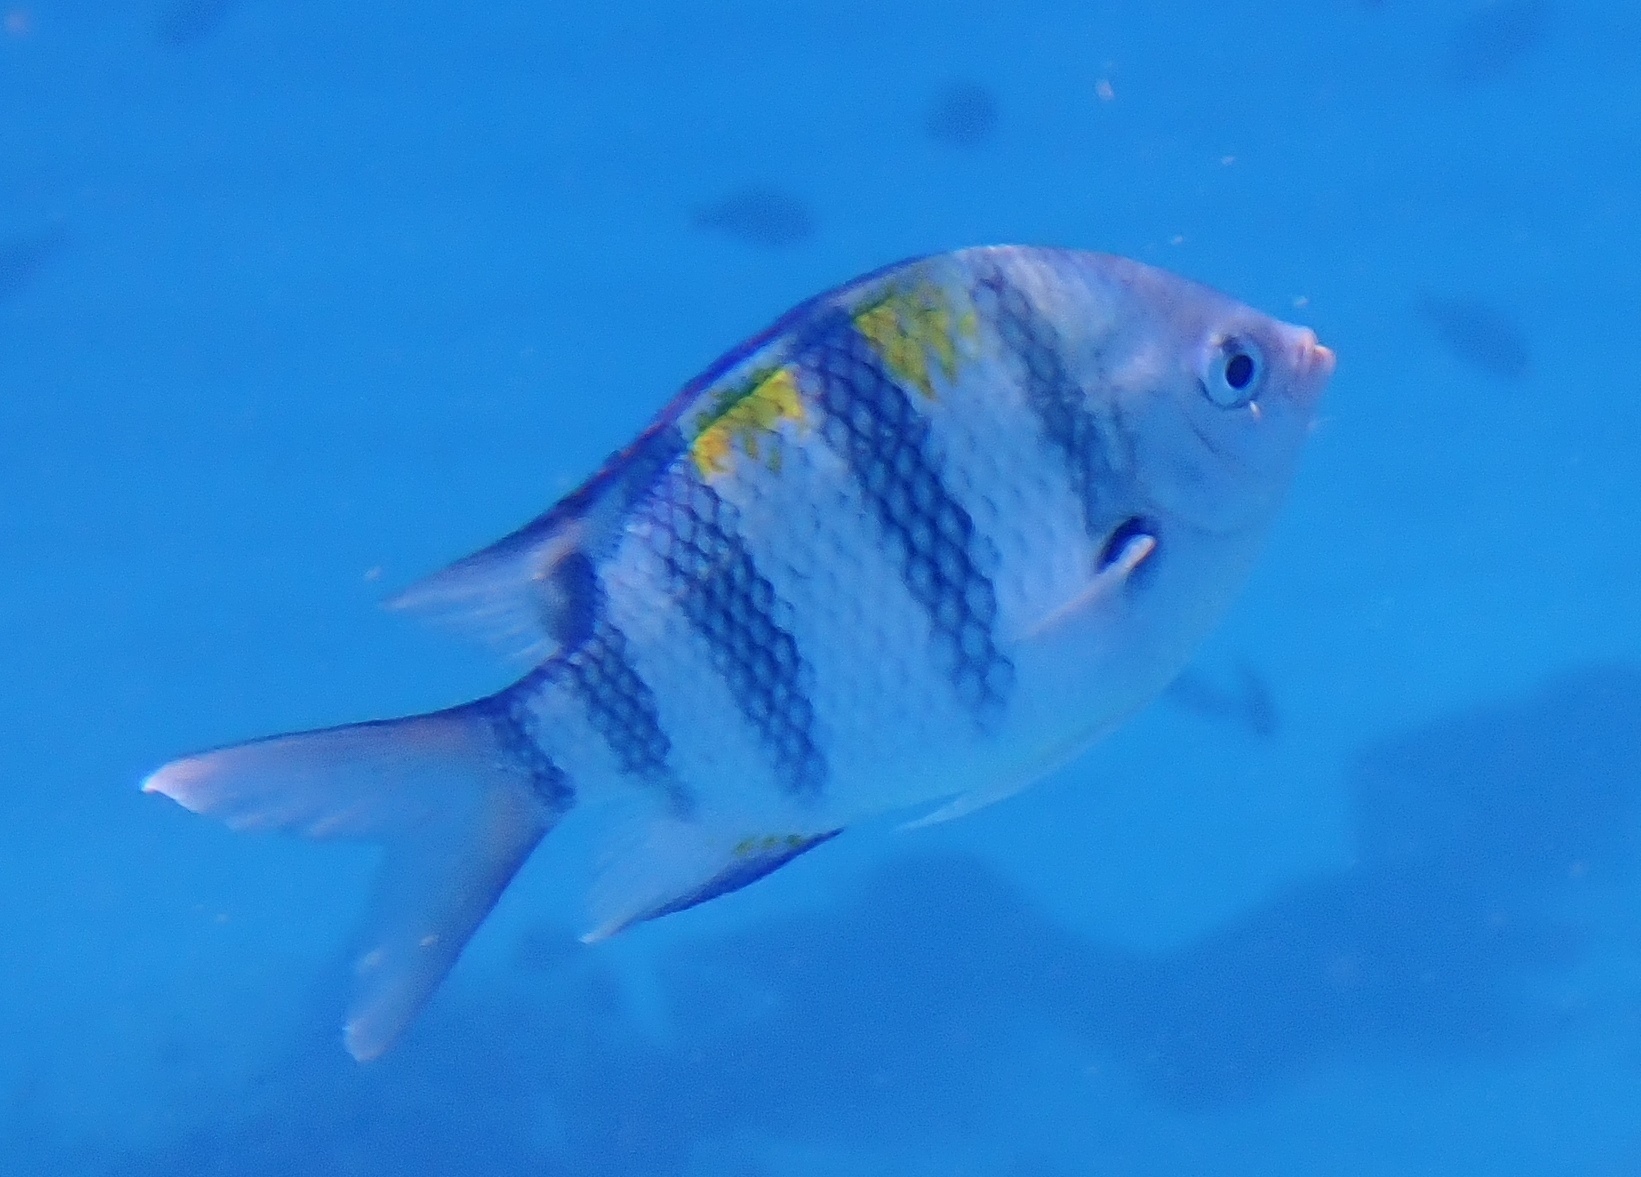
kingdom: Animalia
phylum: Chordata
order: Perciformes
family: Pomacentridae
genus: Abudefduf
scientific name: Abudefduf vaigiensis
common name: Indo-pacific sergeant
